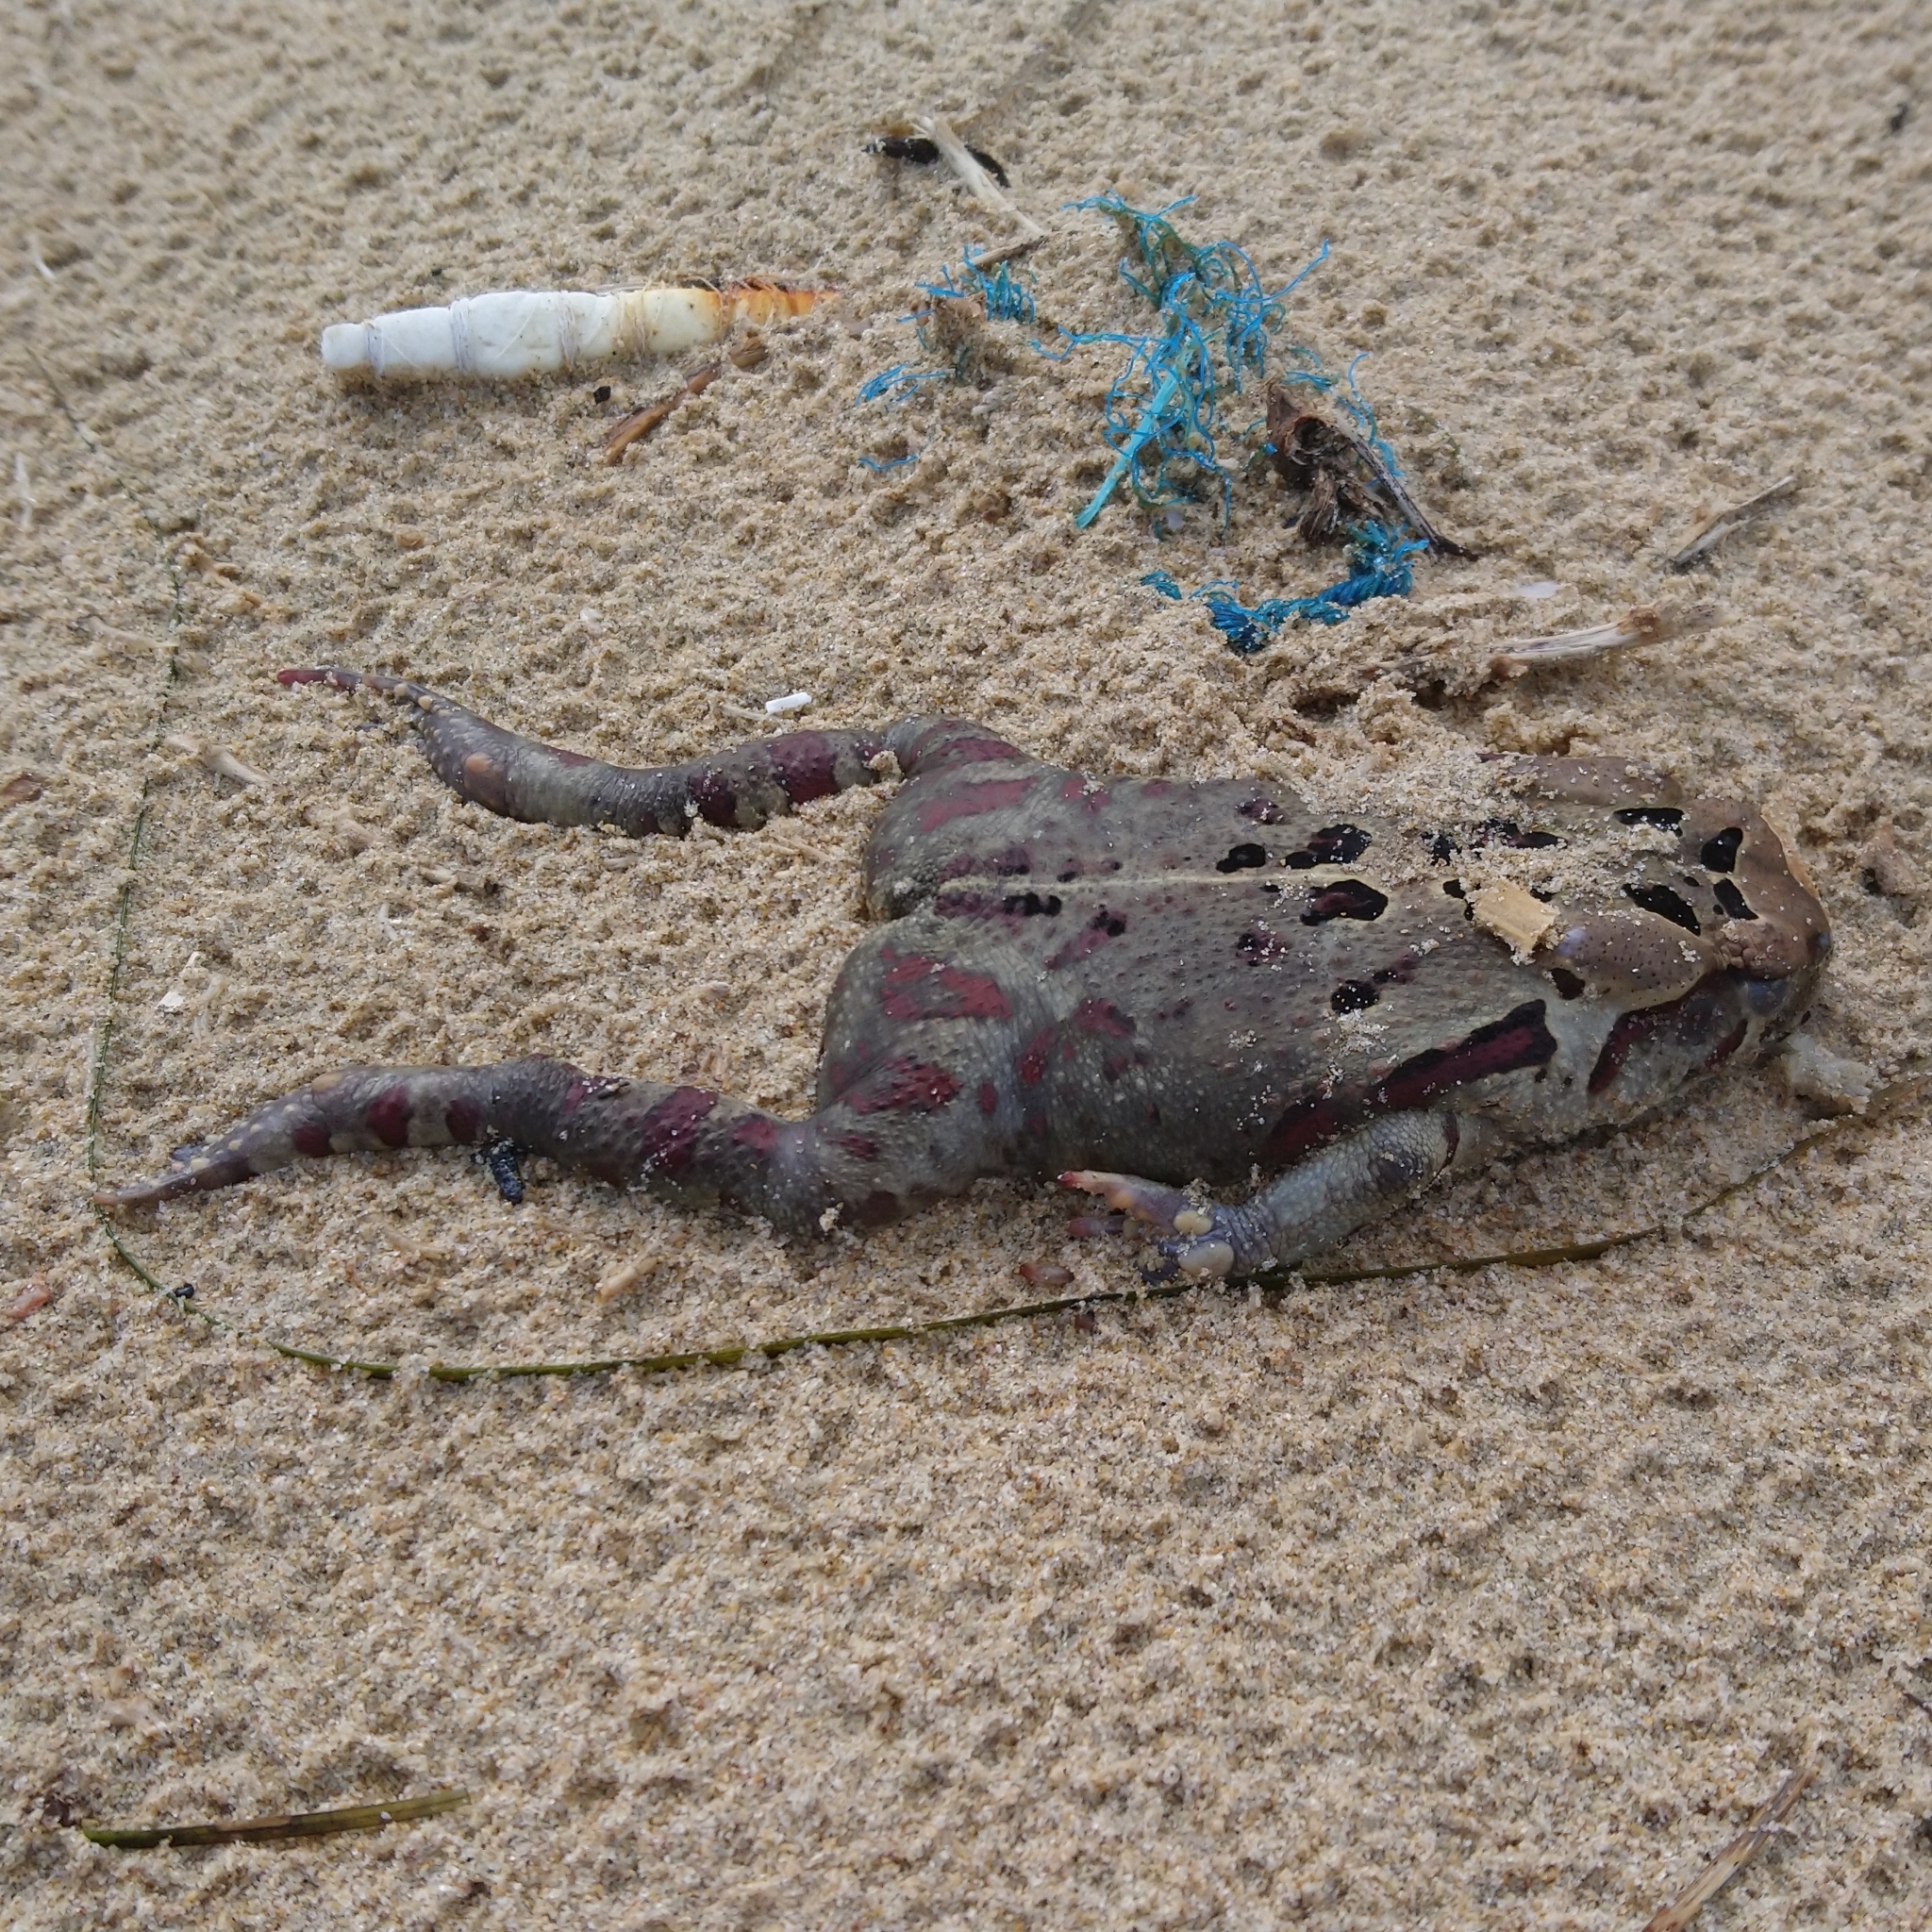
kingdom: Animalia
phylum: Chordata
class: Amphibia
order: Anura
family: Bufonidae
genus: Sclerophrys
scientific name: Sclerophrys pardalis
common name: Eastern leopard toad
